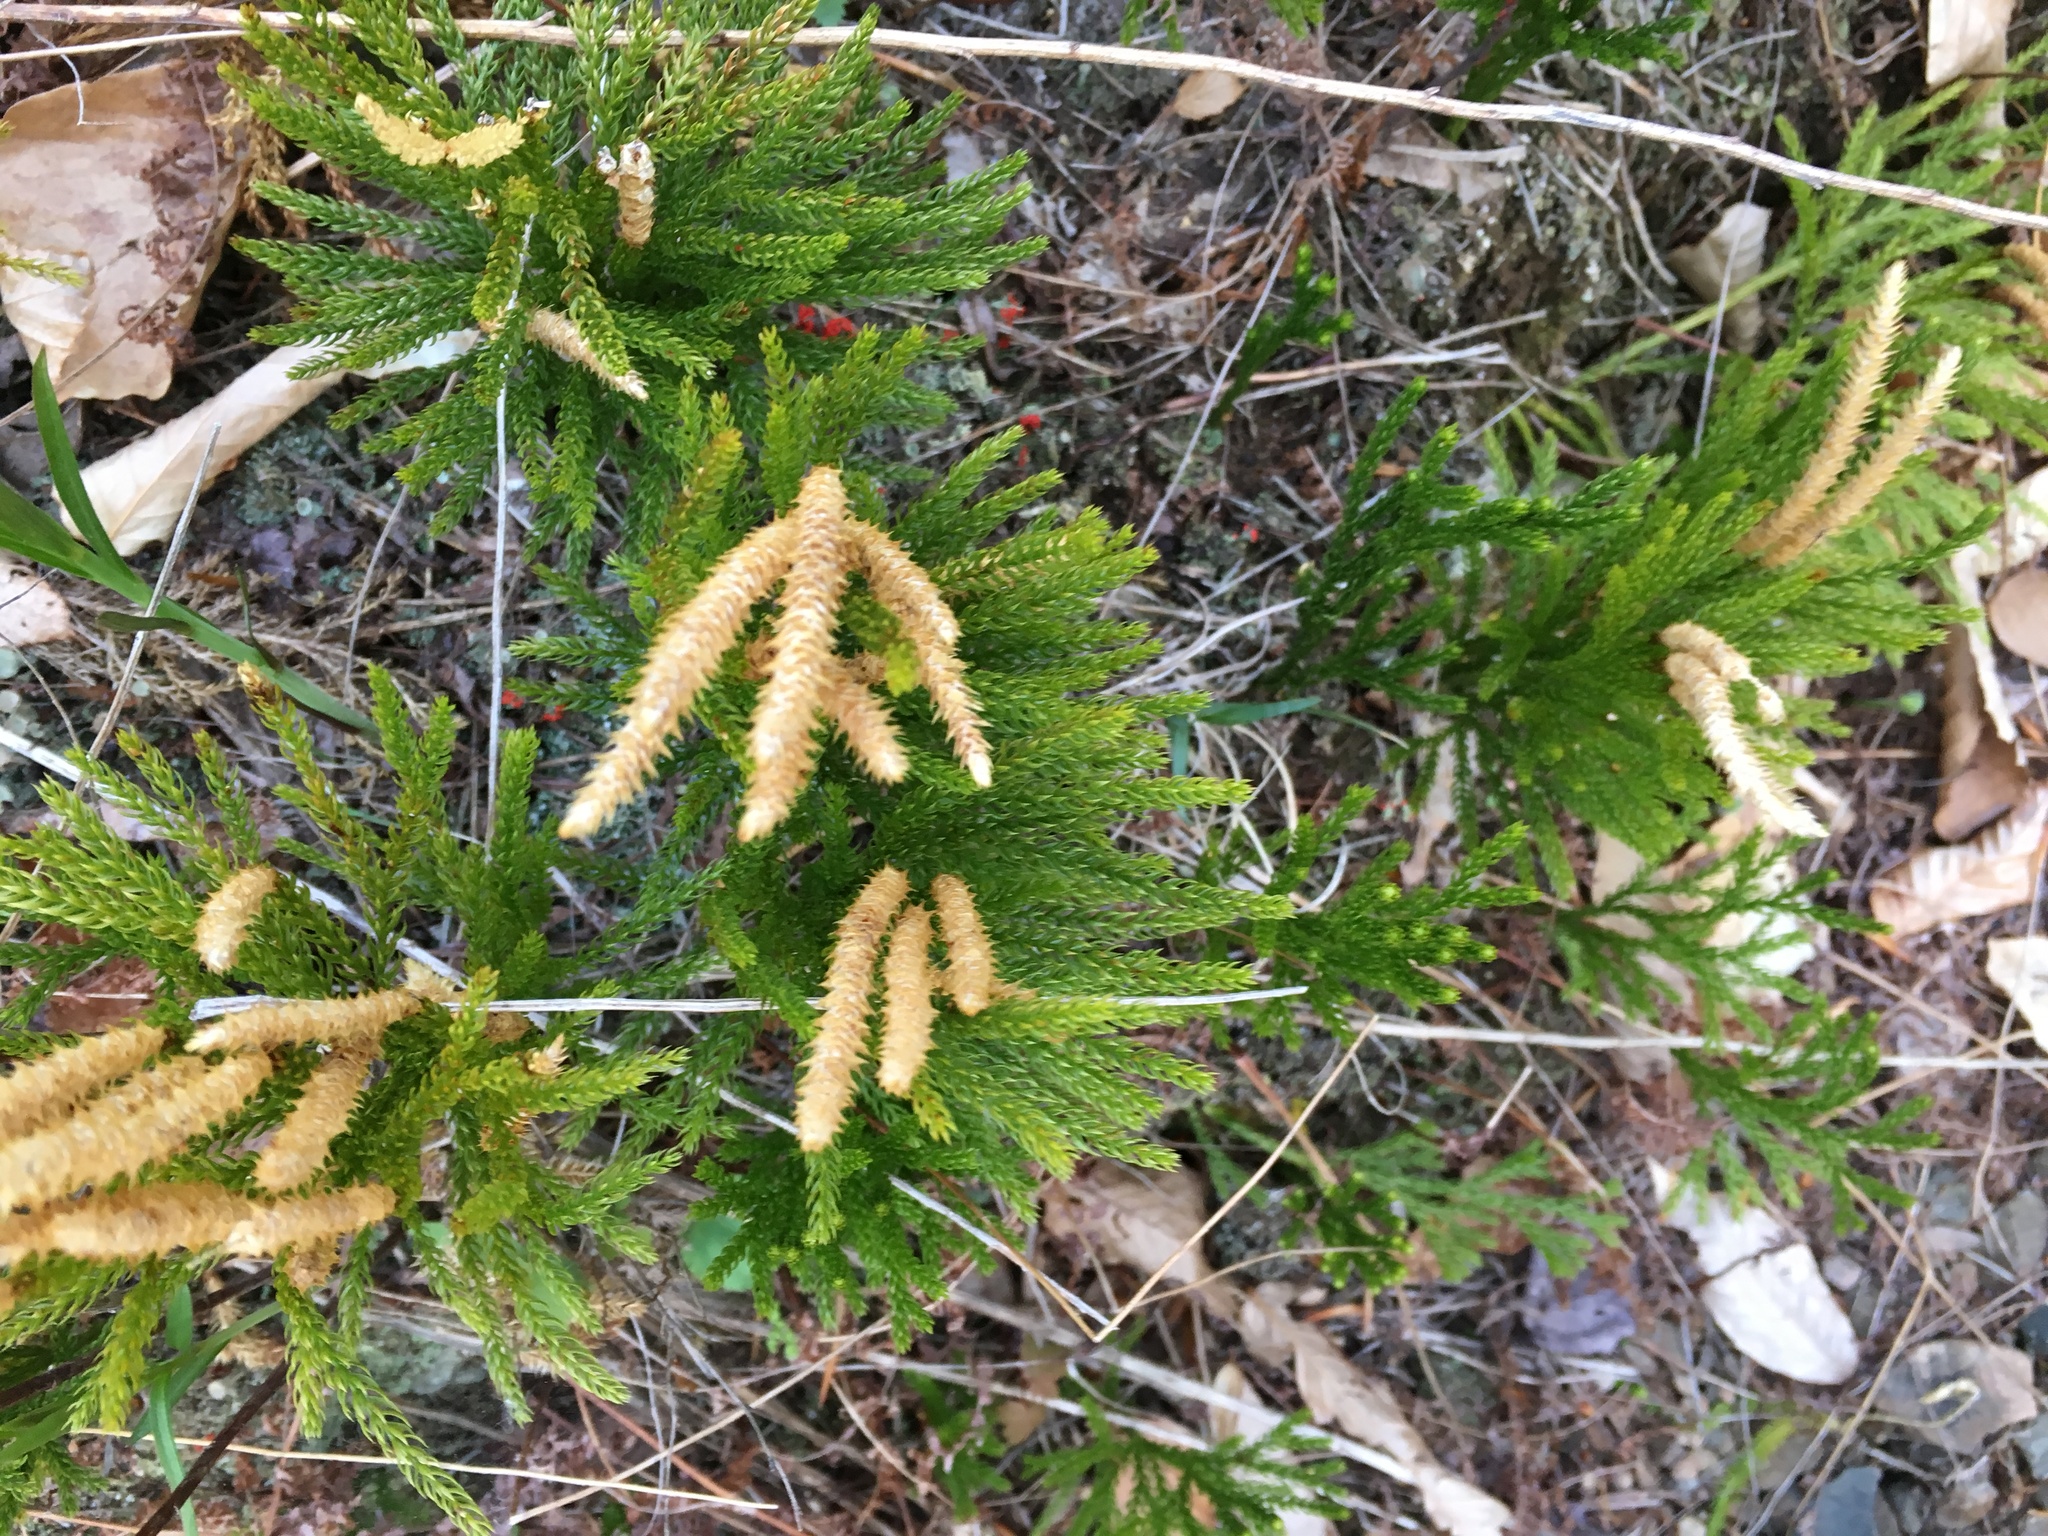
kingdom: Plantae
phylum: Tracheophyta
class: Lycopodiopsida
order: Lycopodiales
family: Lycopodiaceae
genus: Dendrolycopodium
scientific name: Dendrolycopodium hickeyi
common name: Hickey's clubmoss
